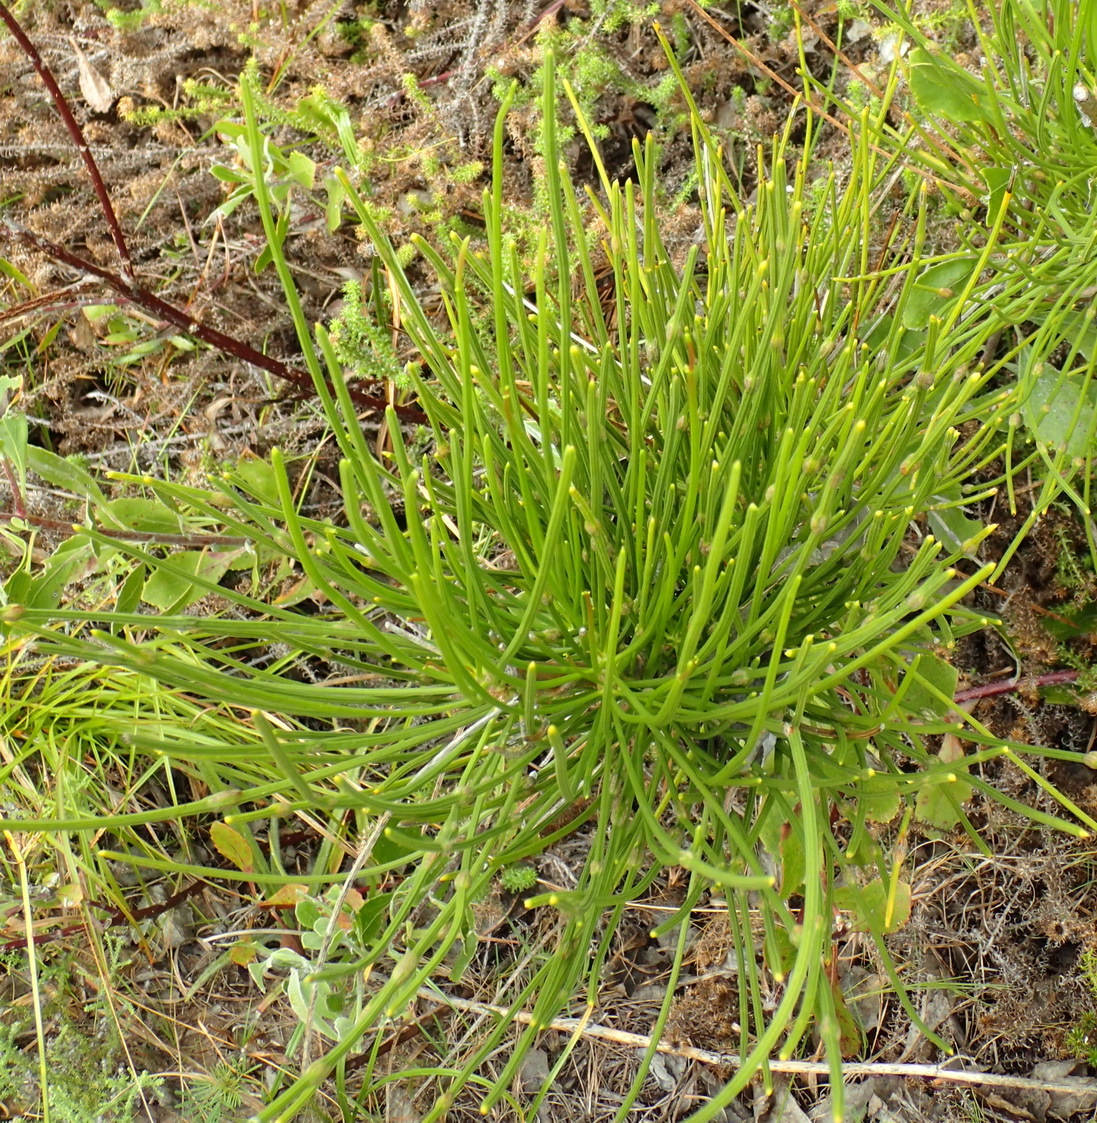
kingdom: Plantae
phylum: Tracheophyta
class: Magnoliopsida
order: Apiales
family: Apiaceae
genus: Anginon
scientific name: Anginon difforme
